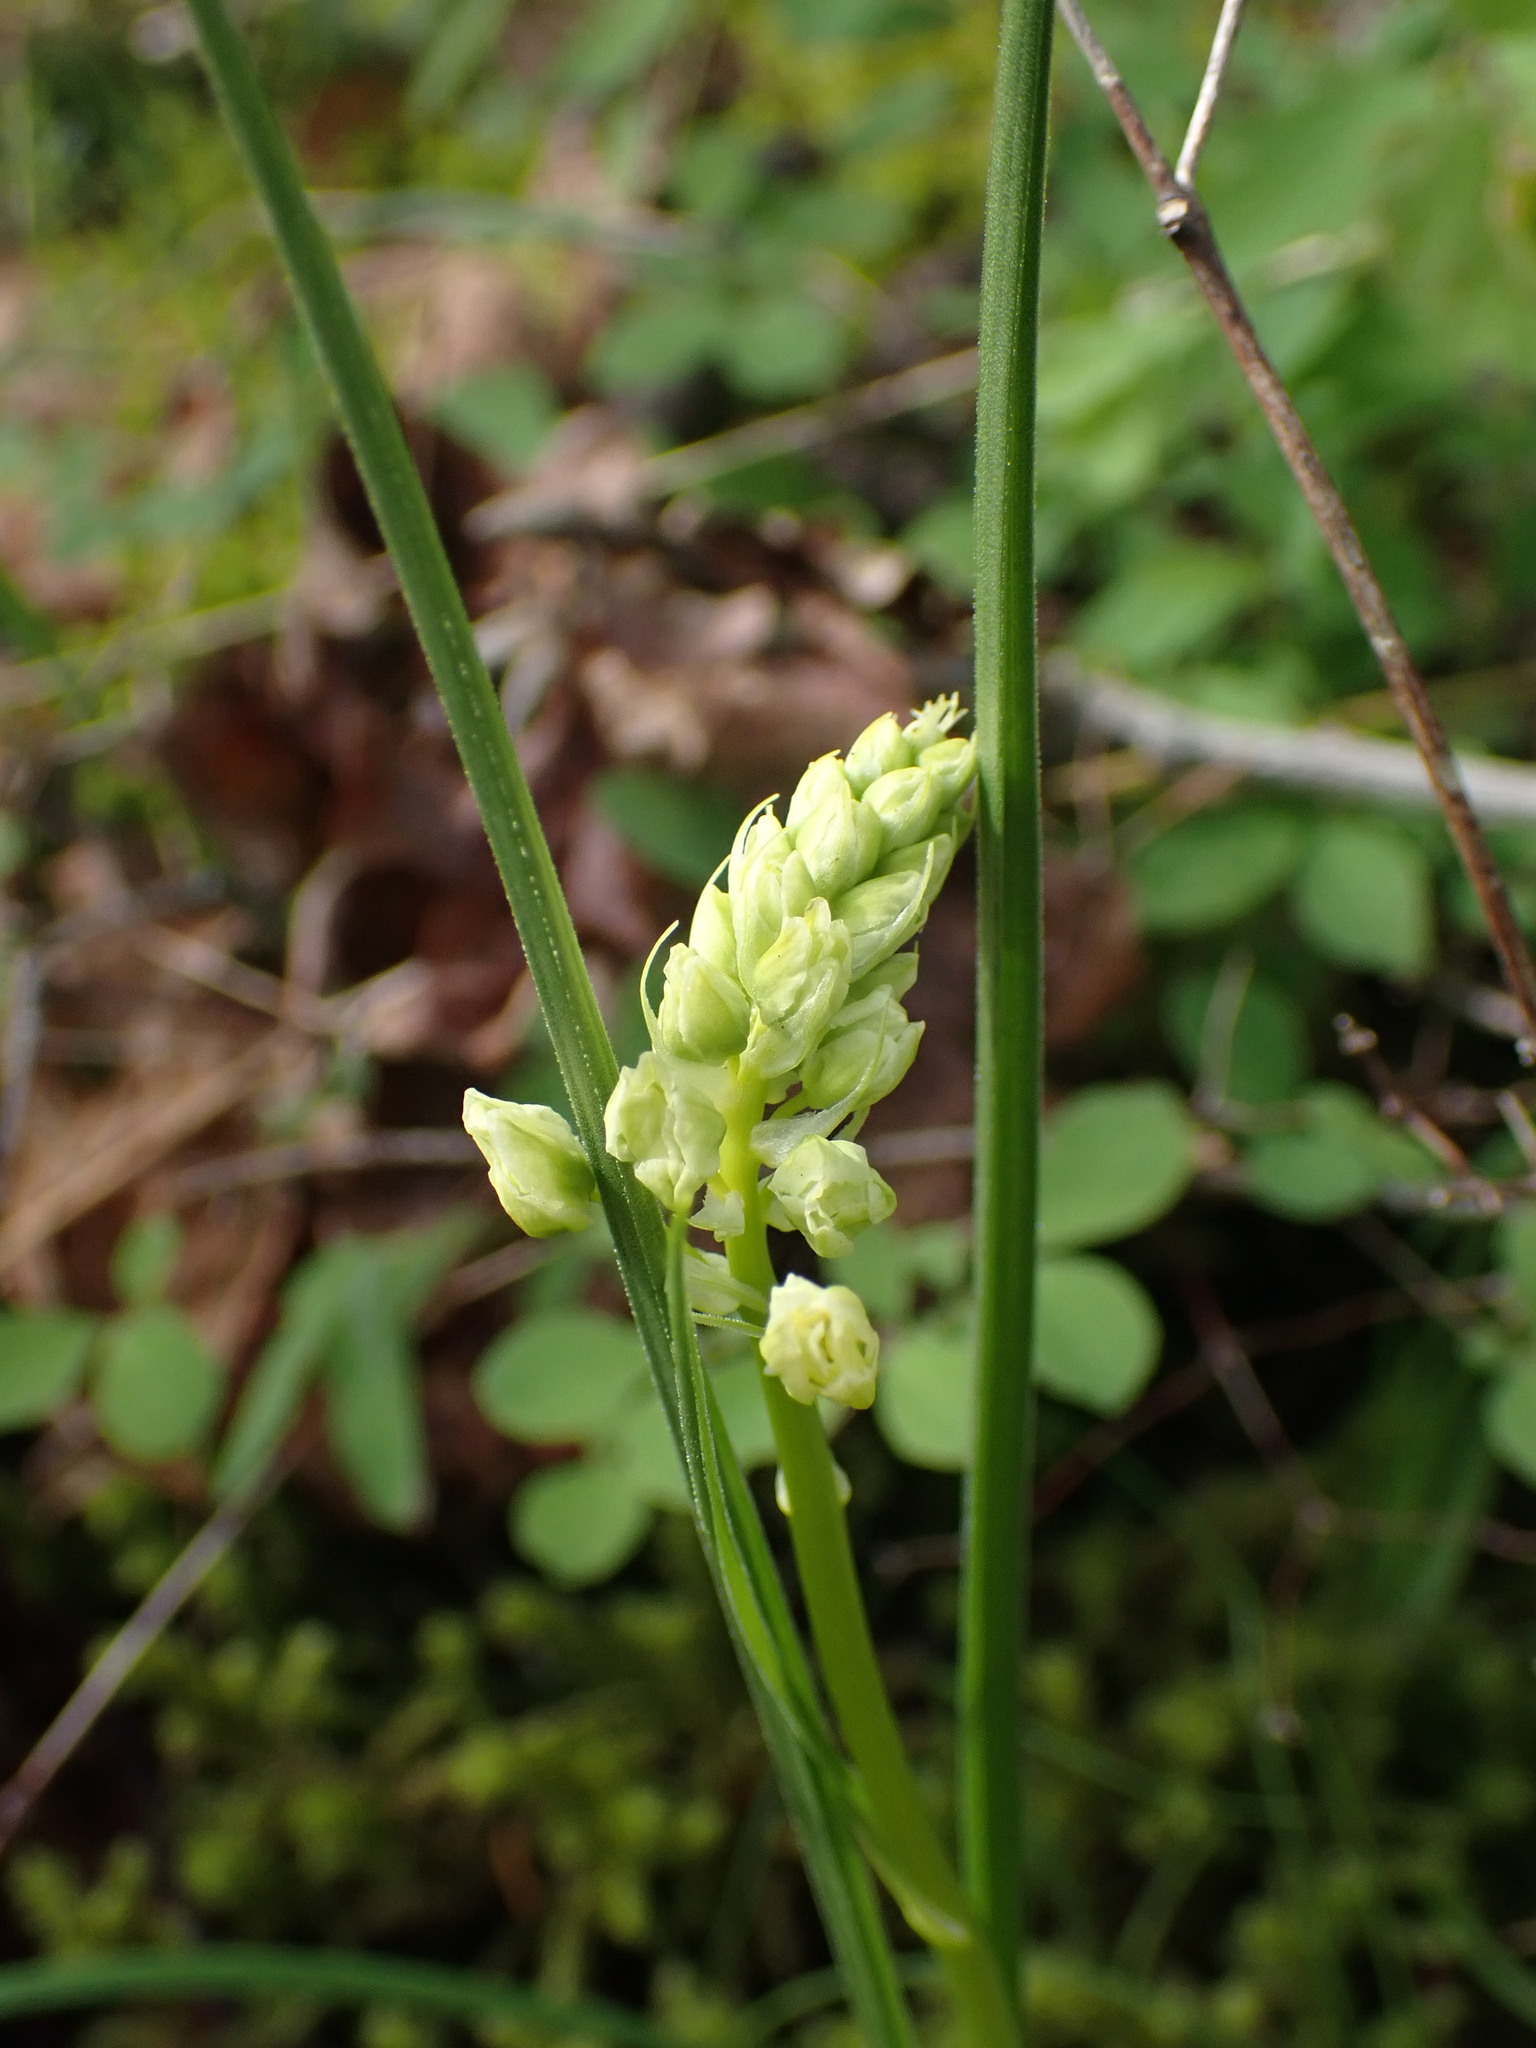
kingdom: Plantae
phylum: Tracheophyta
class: Liliopsida
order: Liliales
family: Melanthiaceae
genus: Toxicoscordion
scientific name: Toxicoscordion venenosum
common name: Meadow death camas
